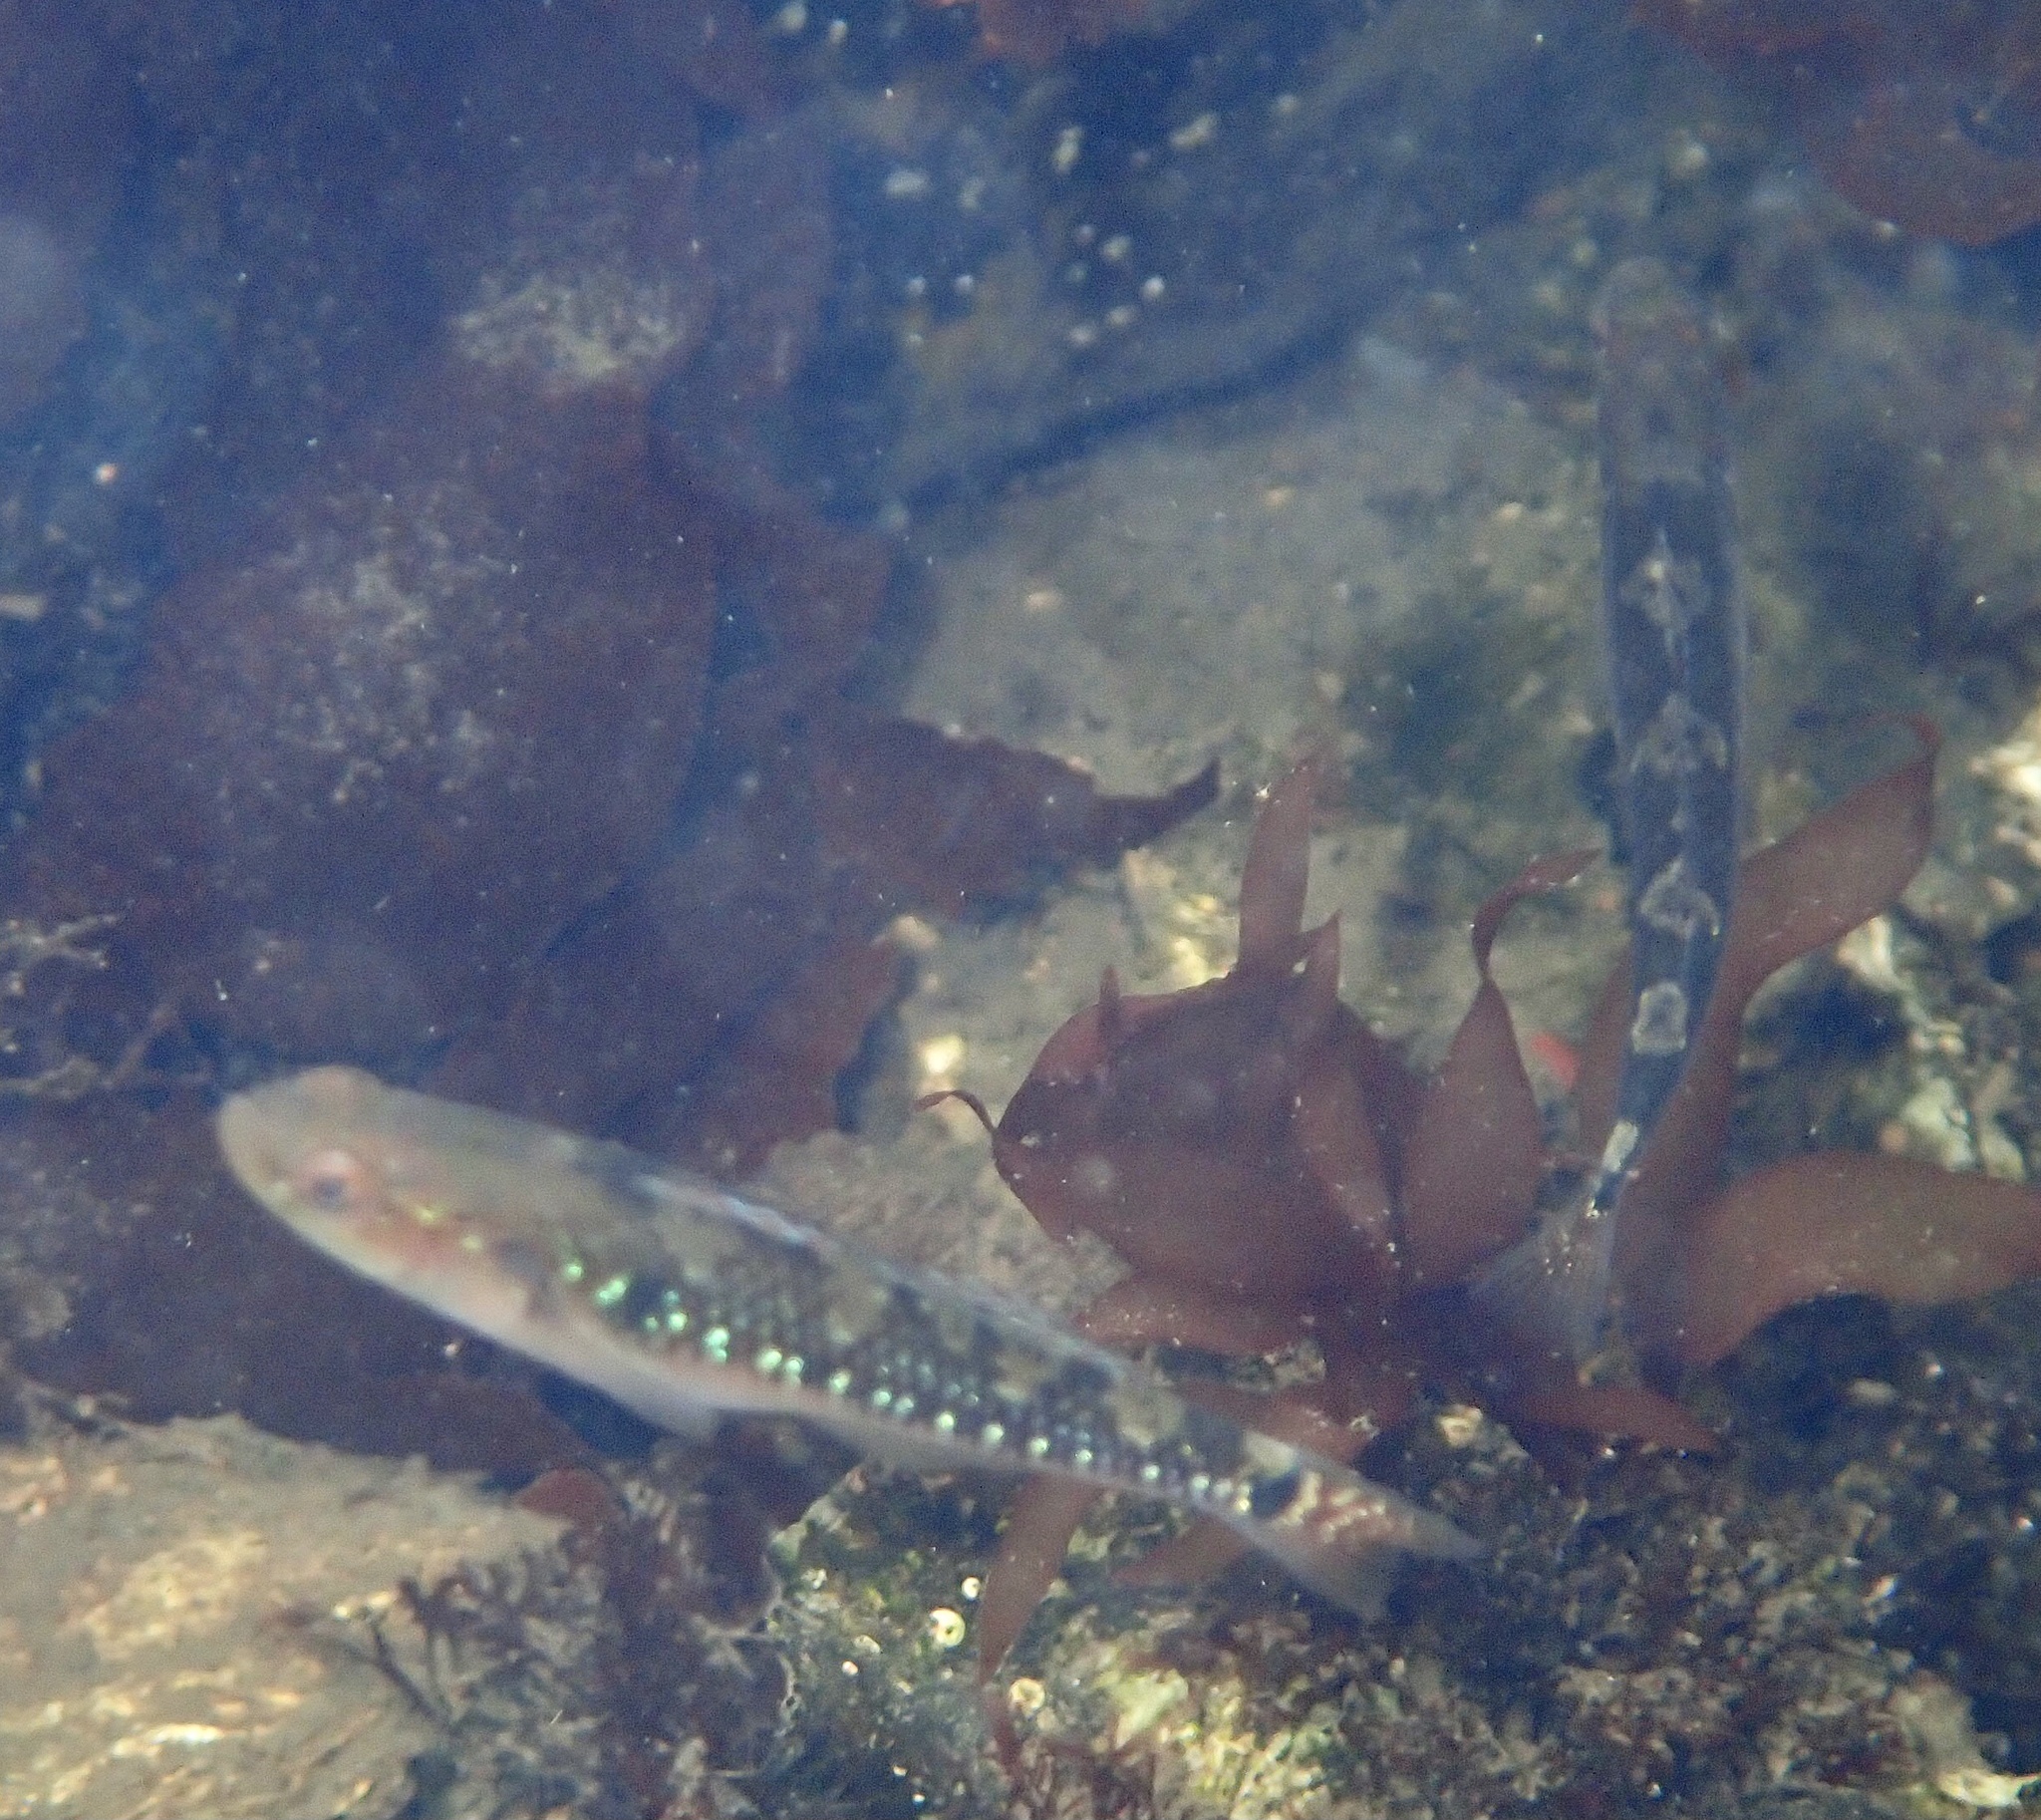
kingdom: Animalia
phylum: Chordata
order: Perciformes
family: Gobiidae
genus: Gobiusculus
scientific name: Gobiusculus flavescens
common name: Two-spotted goby
